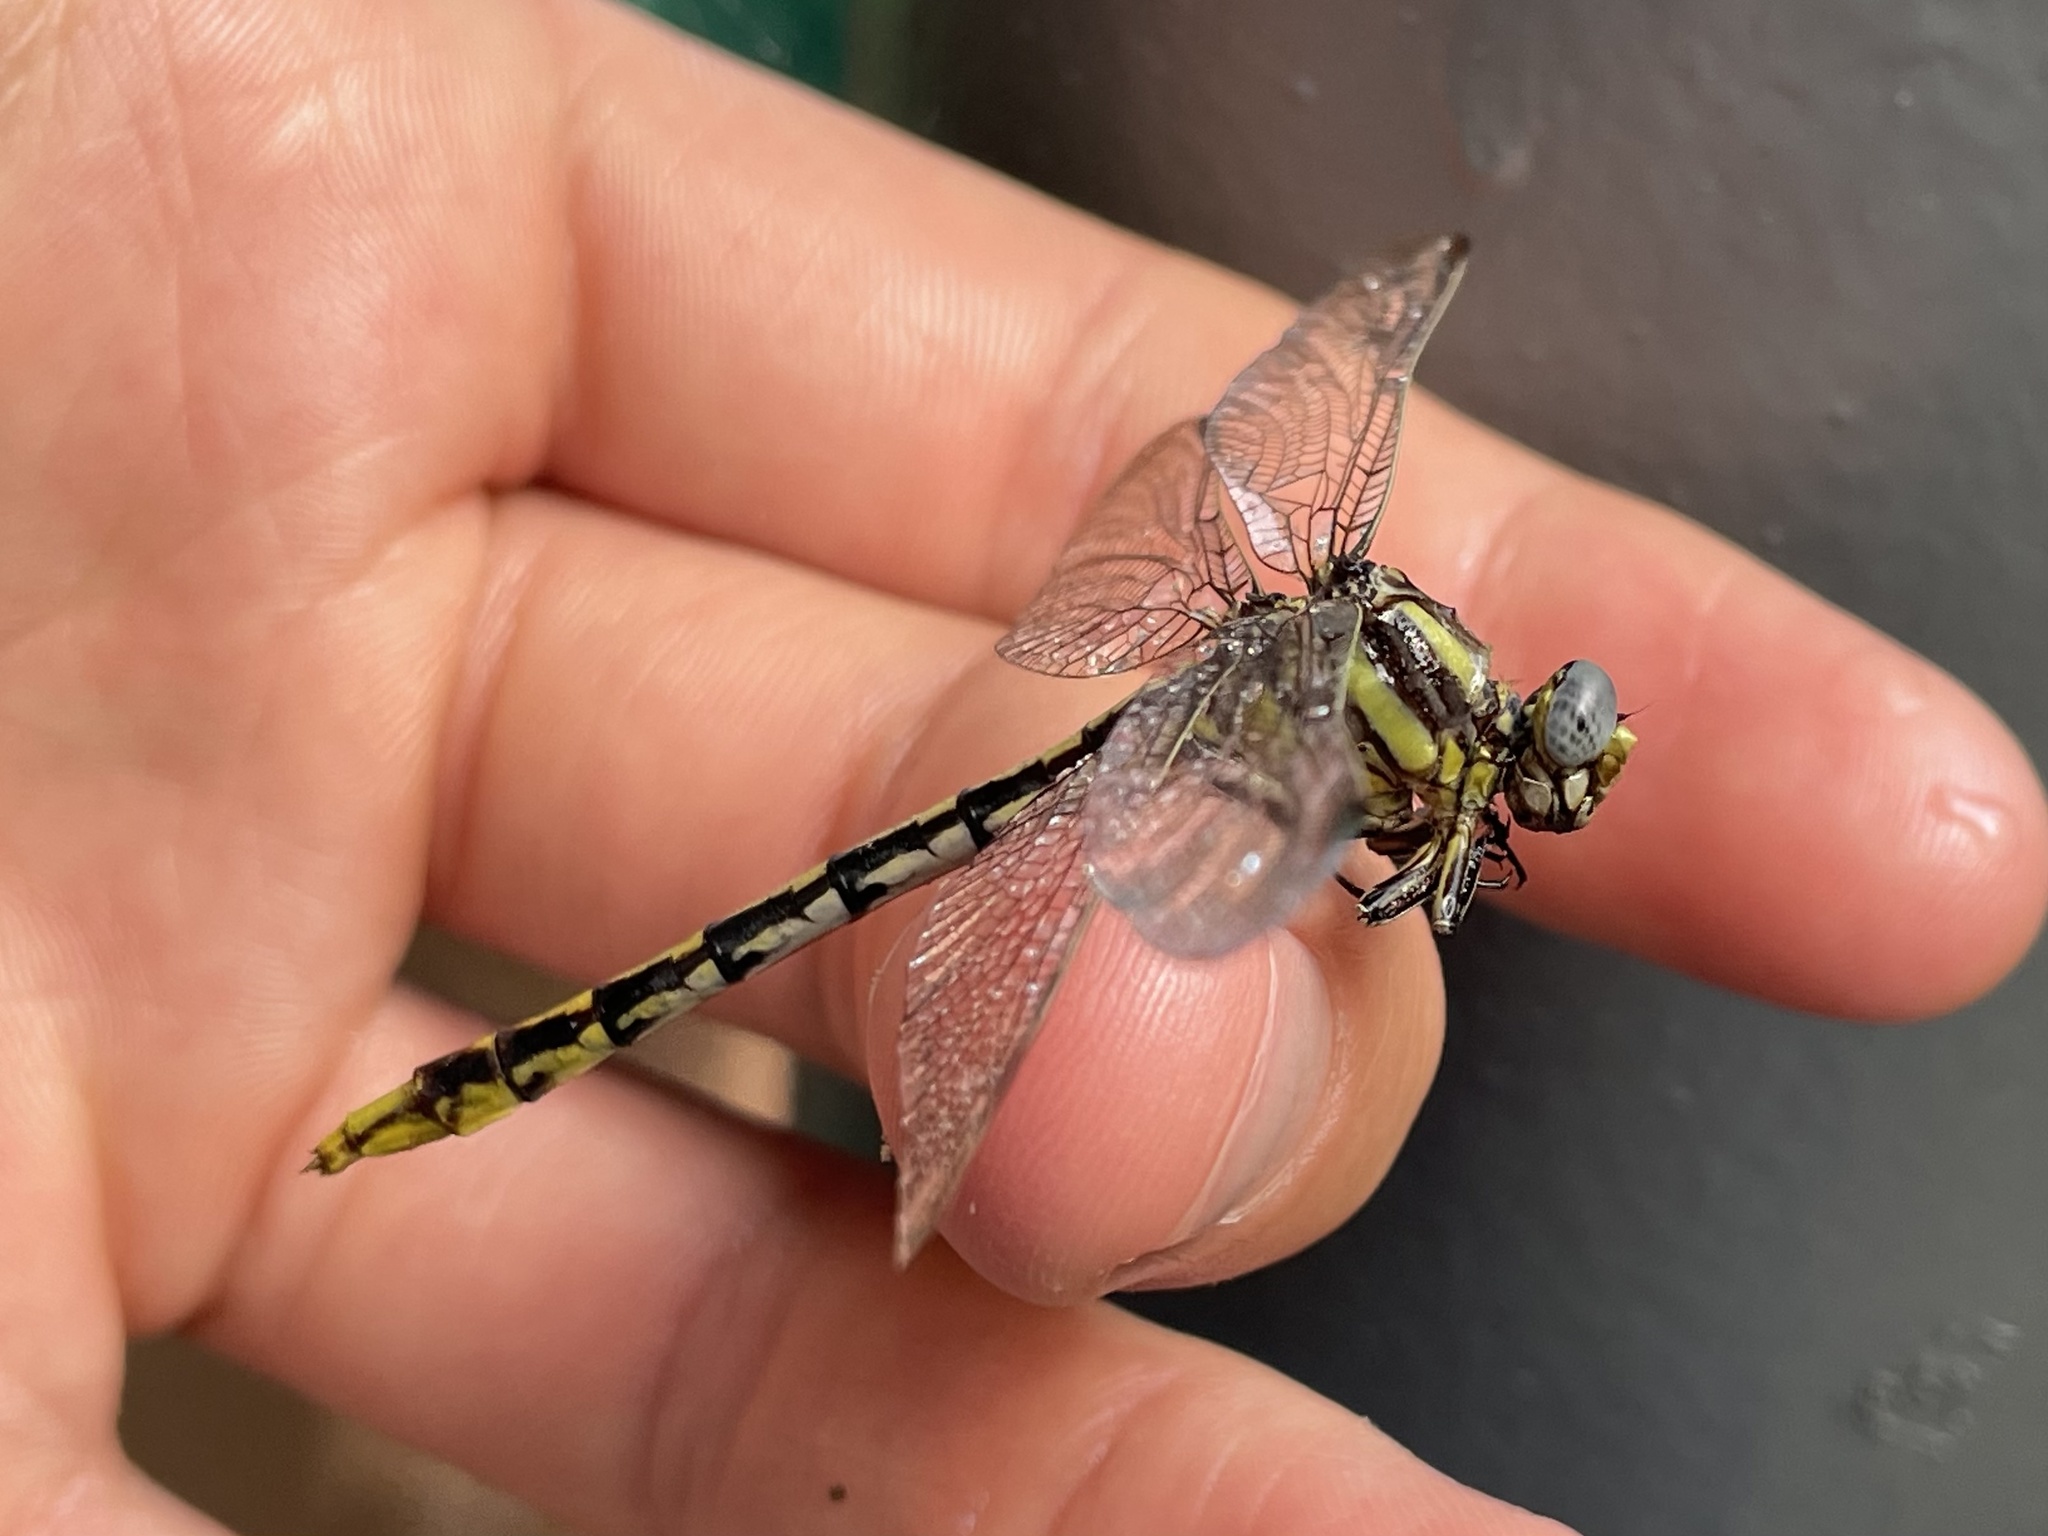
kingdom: Animalia
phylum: Arthropoda
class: Insecta
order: Odonata
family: Gomphidae
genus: Phanogomphus
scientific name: Phanogomphus militaris
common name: Sulphur-tipped clubtail
